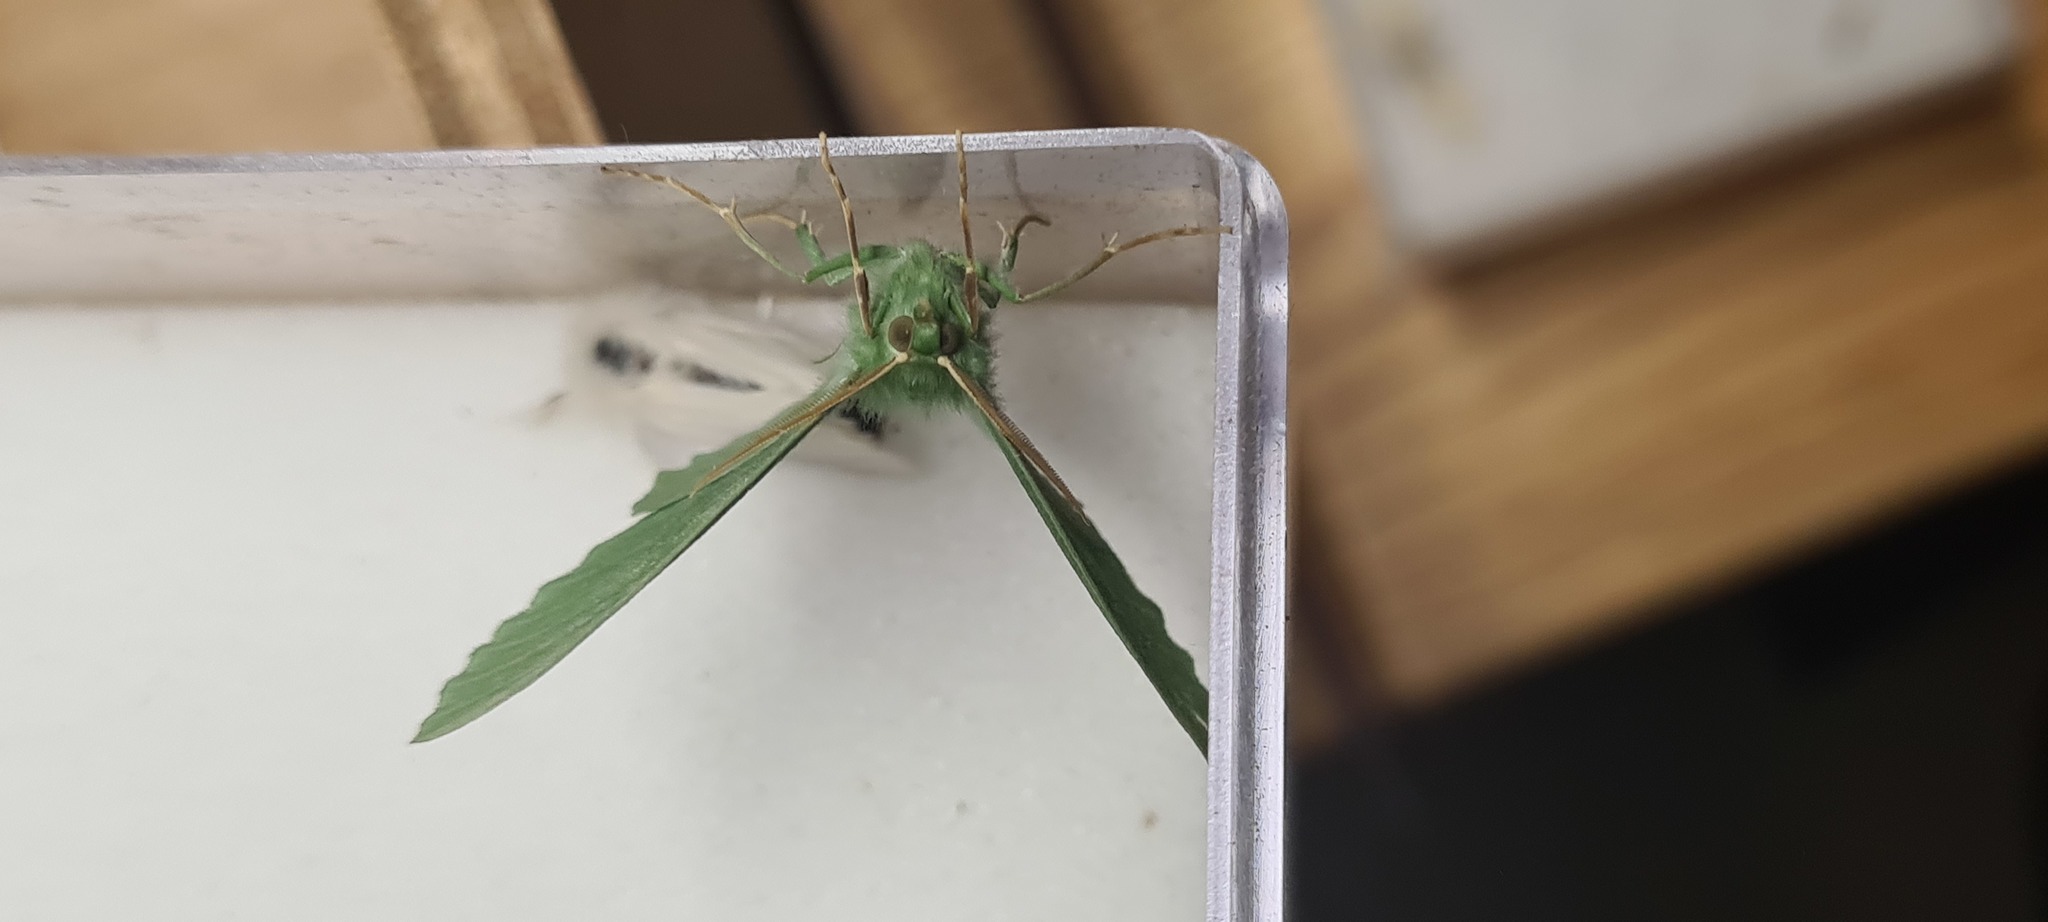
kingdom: Animalia
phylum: Arthropoda
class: Insecta
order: Lepidoptera
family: Geometridae
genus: Geometra
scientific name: Geometra papilionaria
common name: Large emerald
